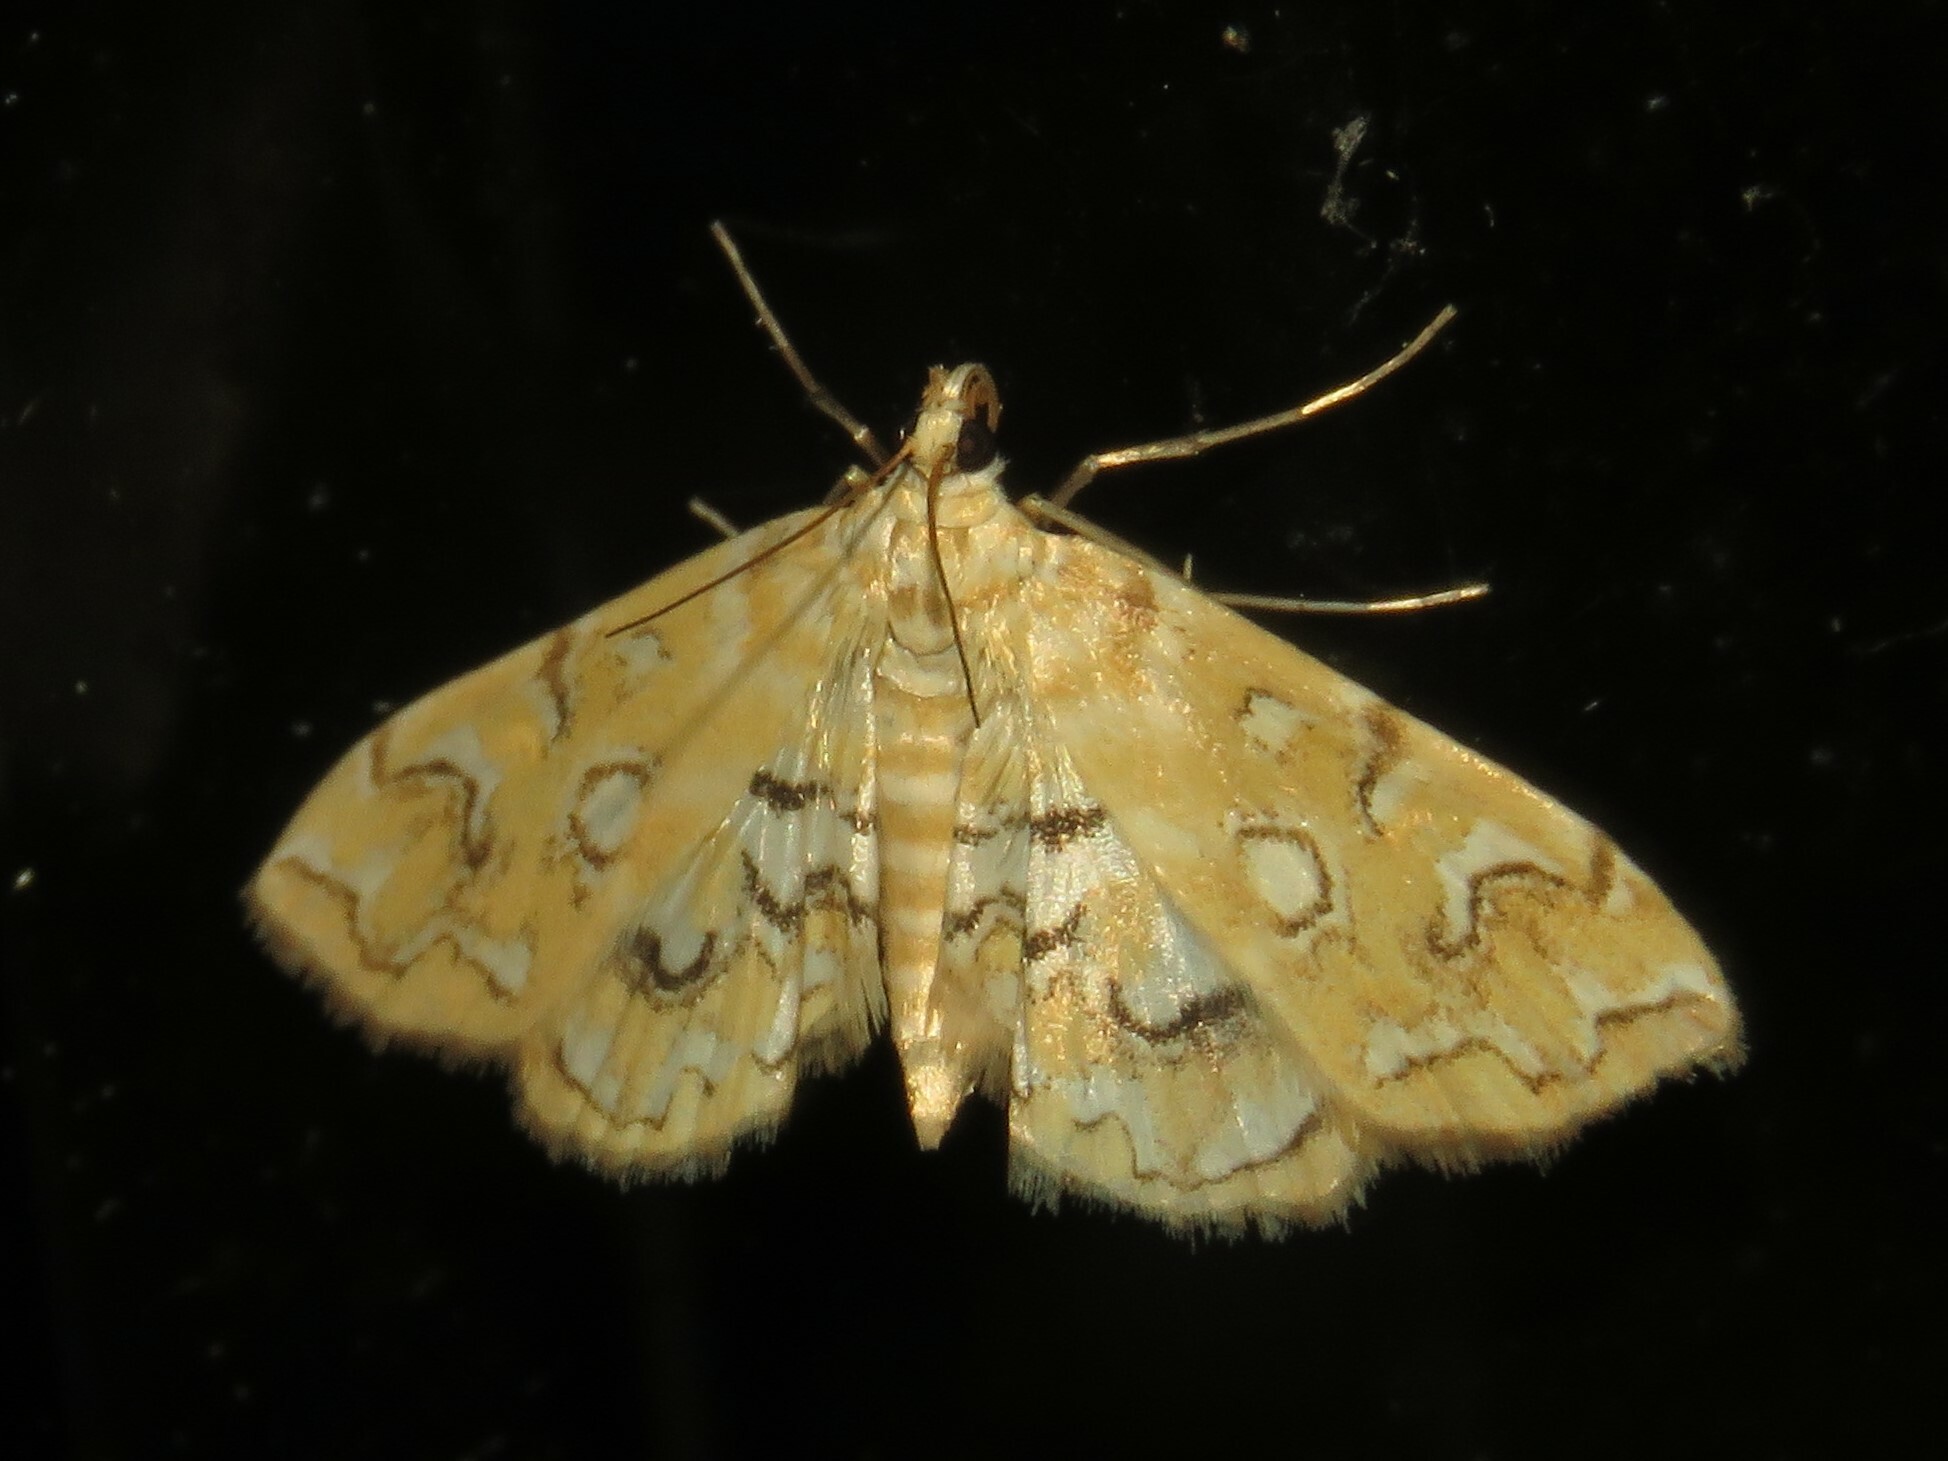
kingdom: Animalia
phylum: Arthropoda
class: Insecta
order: Lepidoptera
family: Crambidae
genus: Elophila
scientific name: Elophila icciusalis
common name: Pondside pyralid moth
